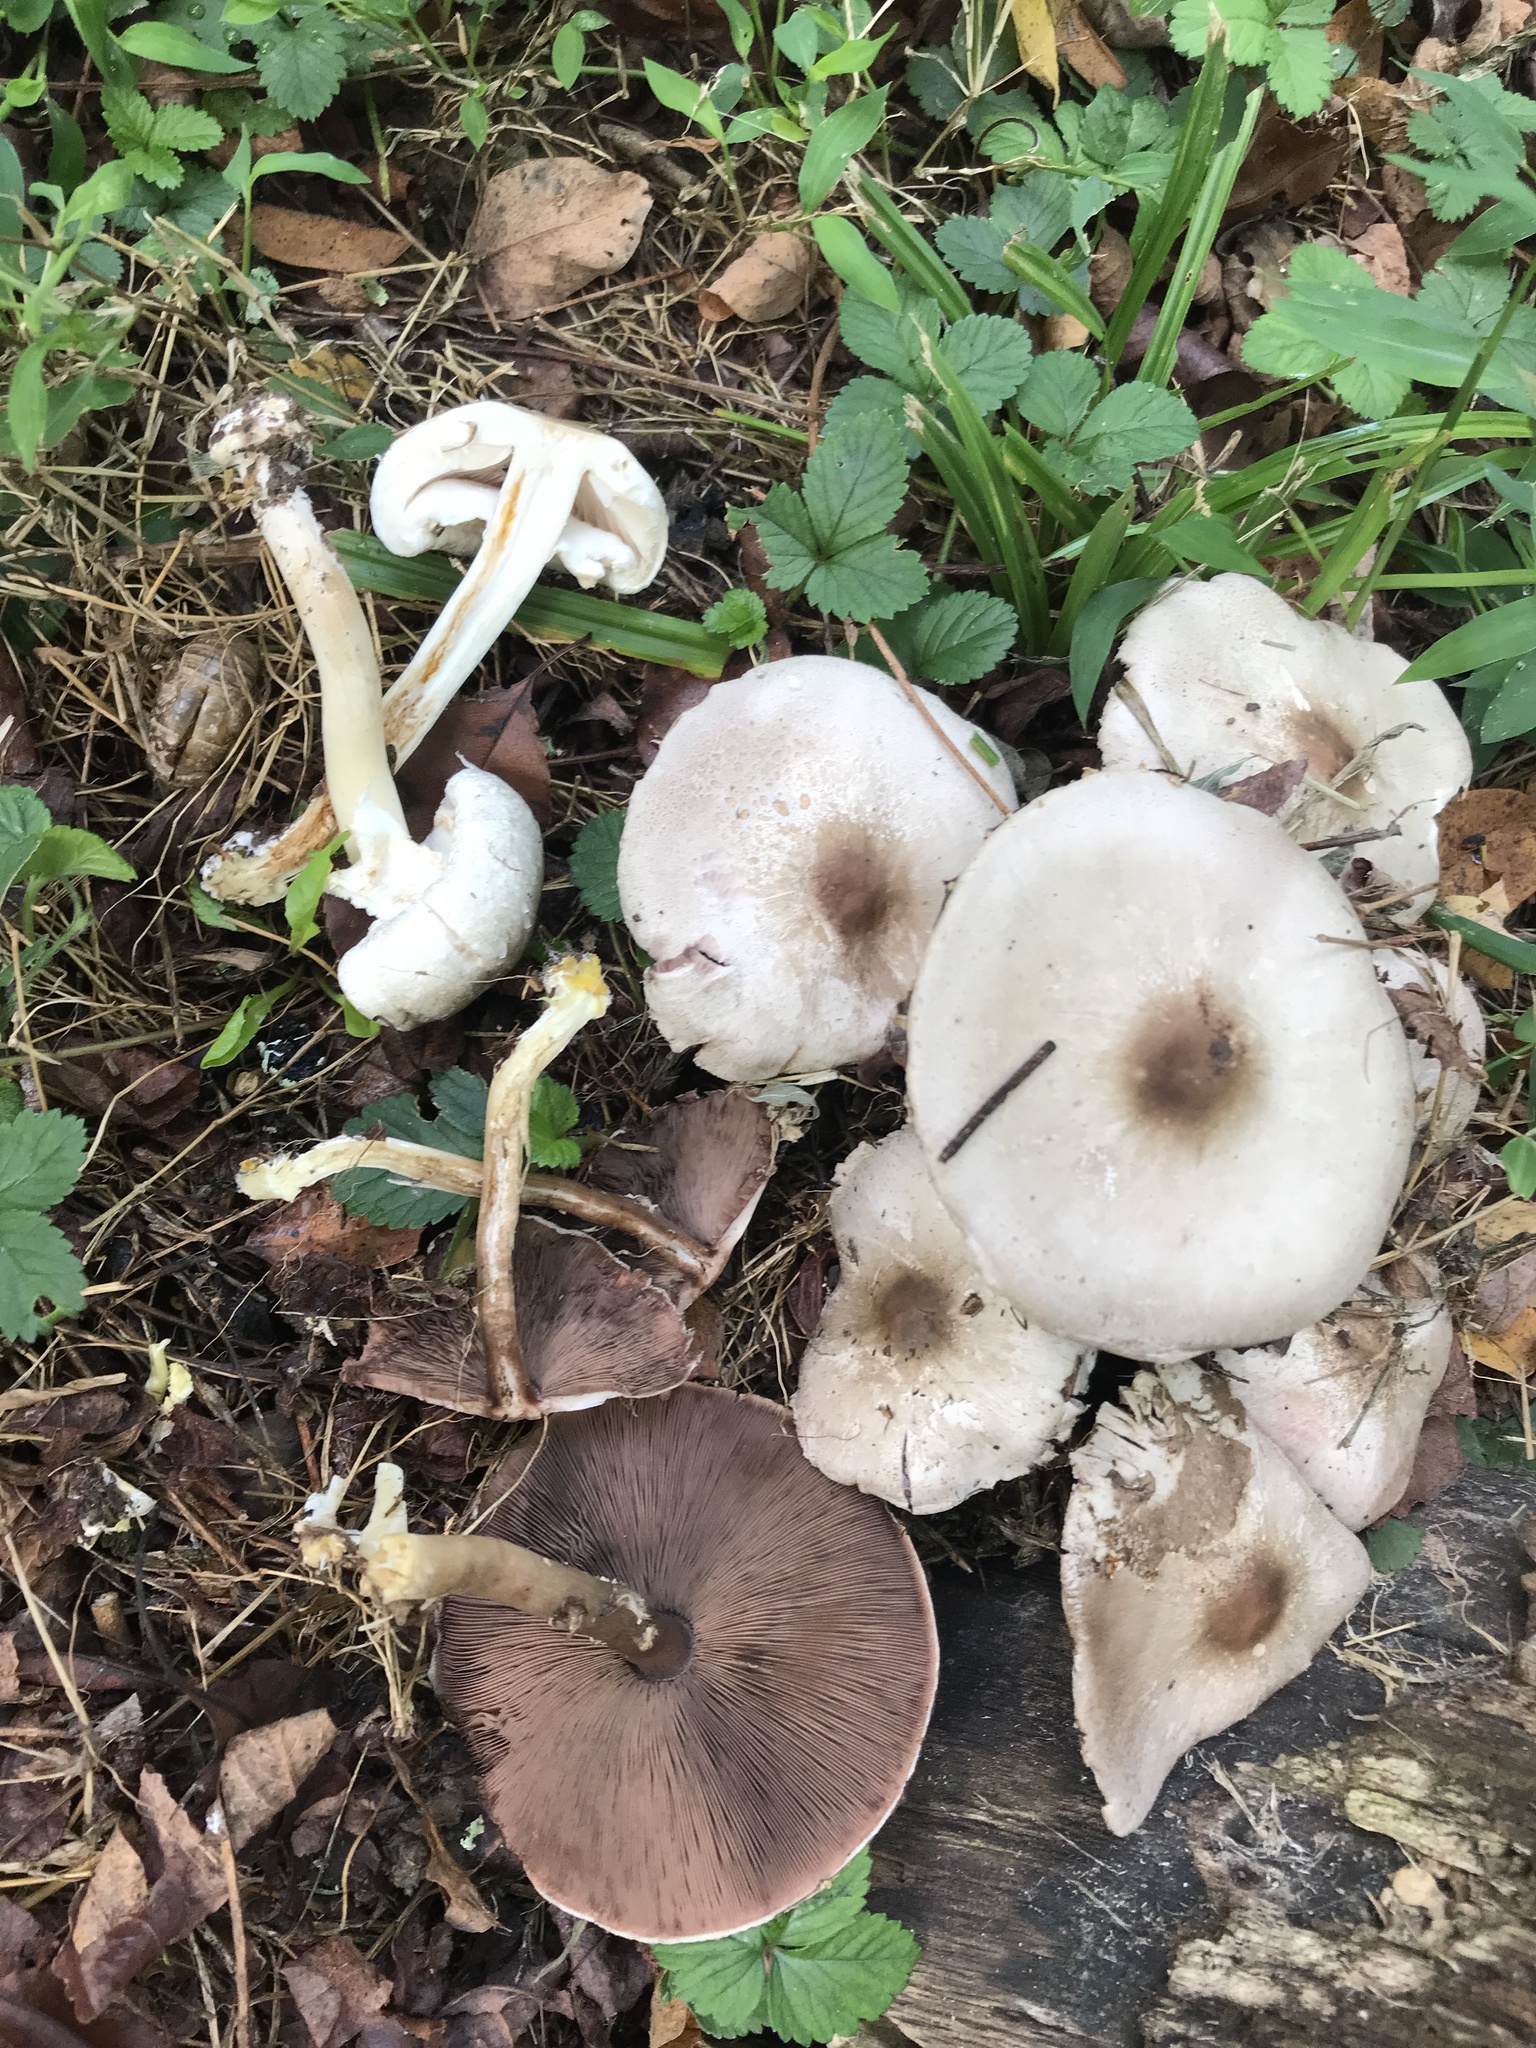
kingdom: Fungi
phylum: Basidiomycota
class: Agaricomycetes
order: Agaricales
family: Agaricaceae
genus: Agaricus
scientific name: Agaricus pocillator
